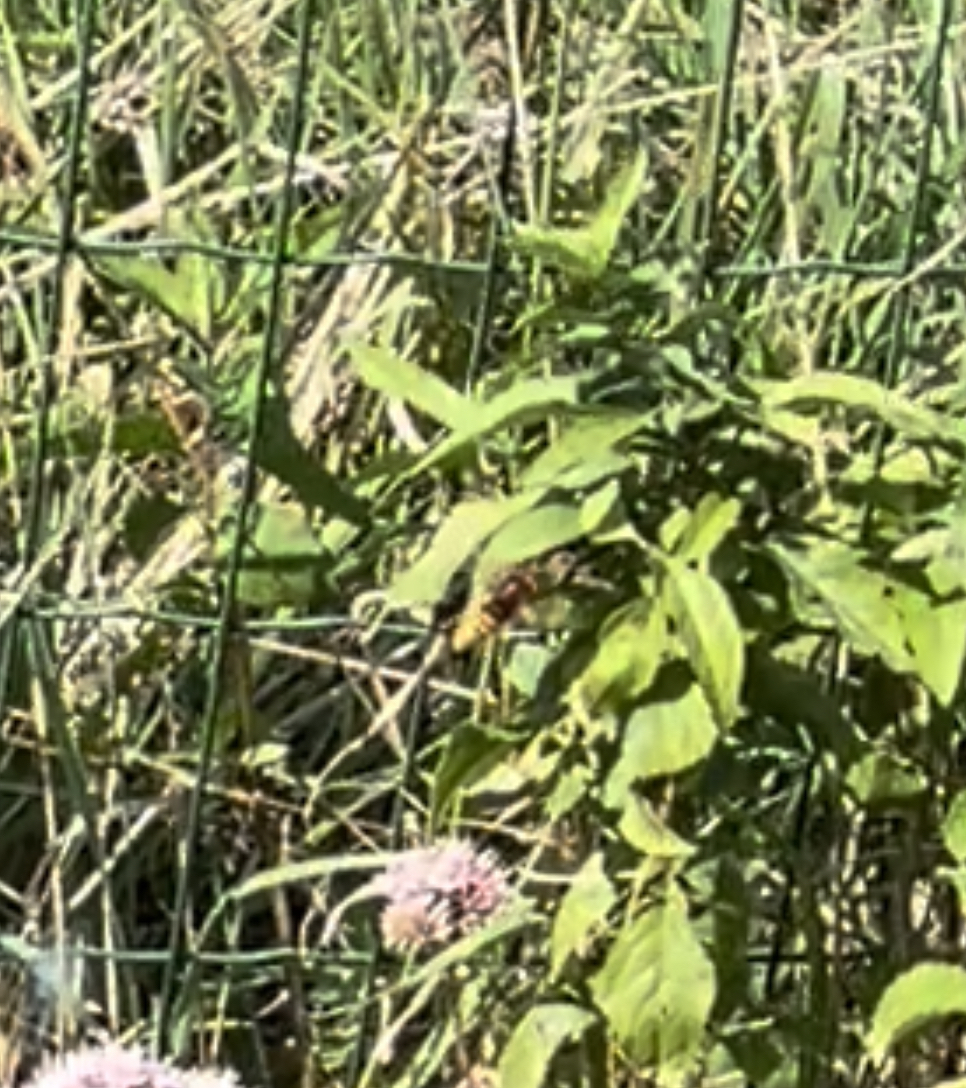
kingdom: Animalia
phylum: Arthropoda
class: Insecta
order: Hymenoptera
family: Vespidae
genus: Vespa
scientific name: Vespa crabro
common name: Hornet
